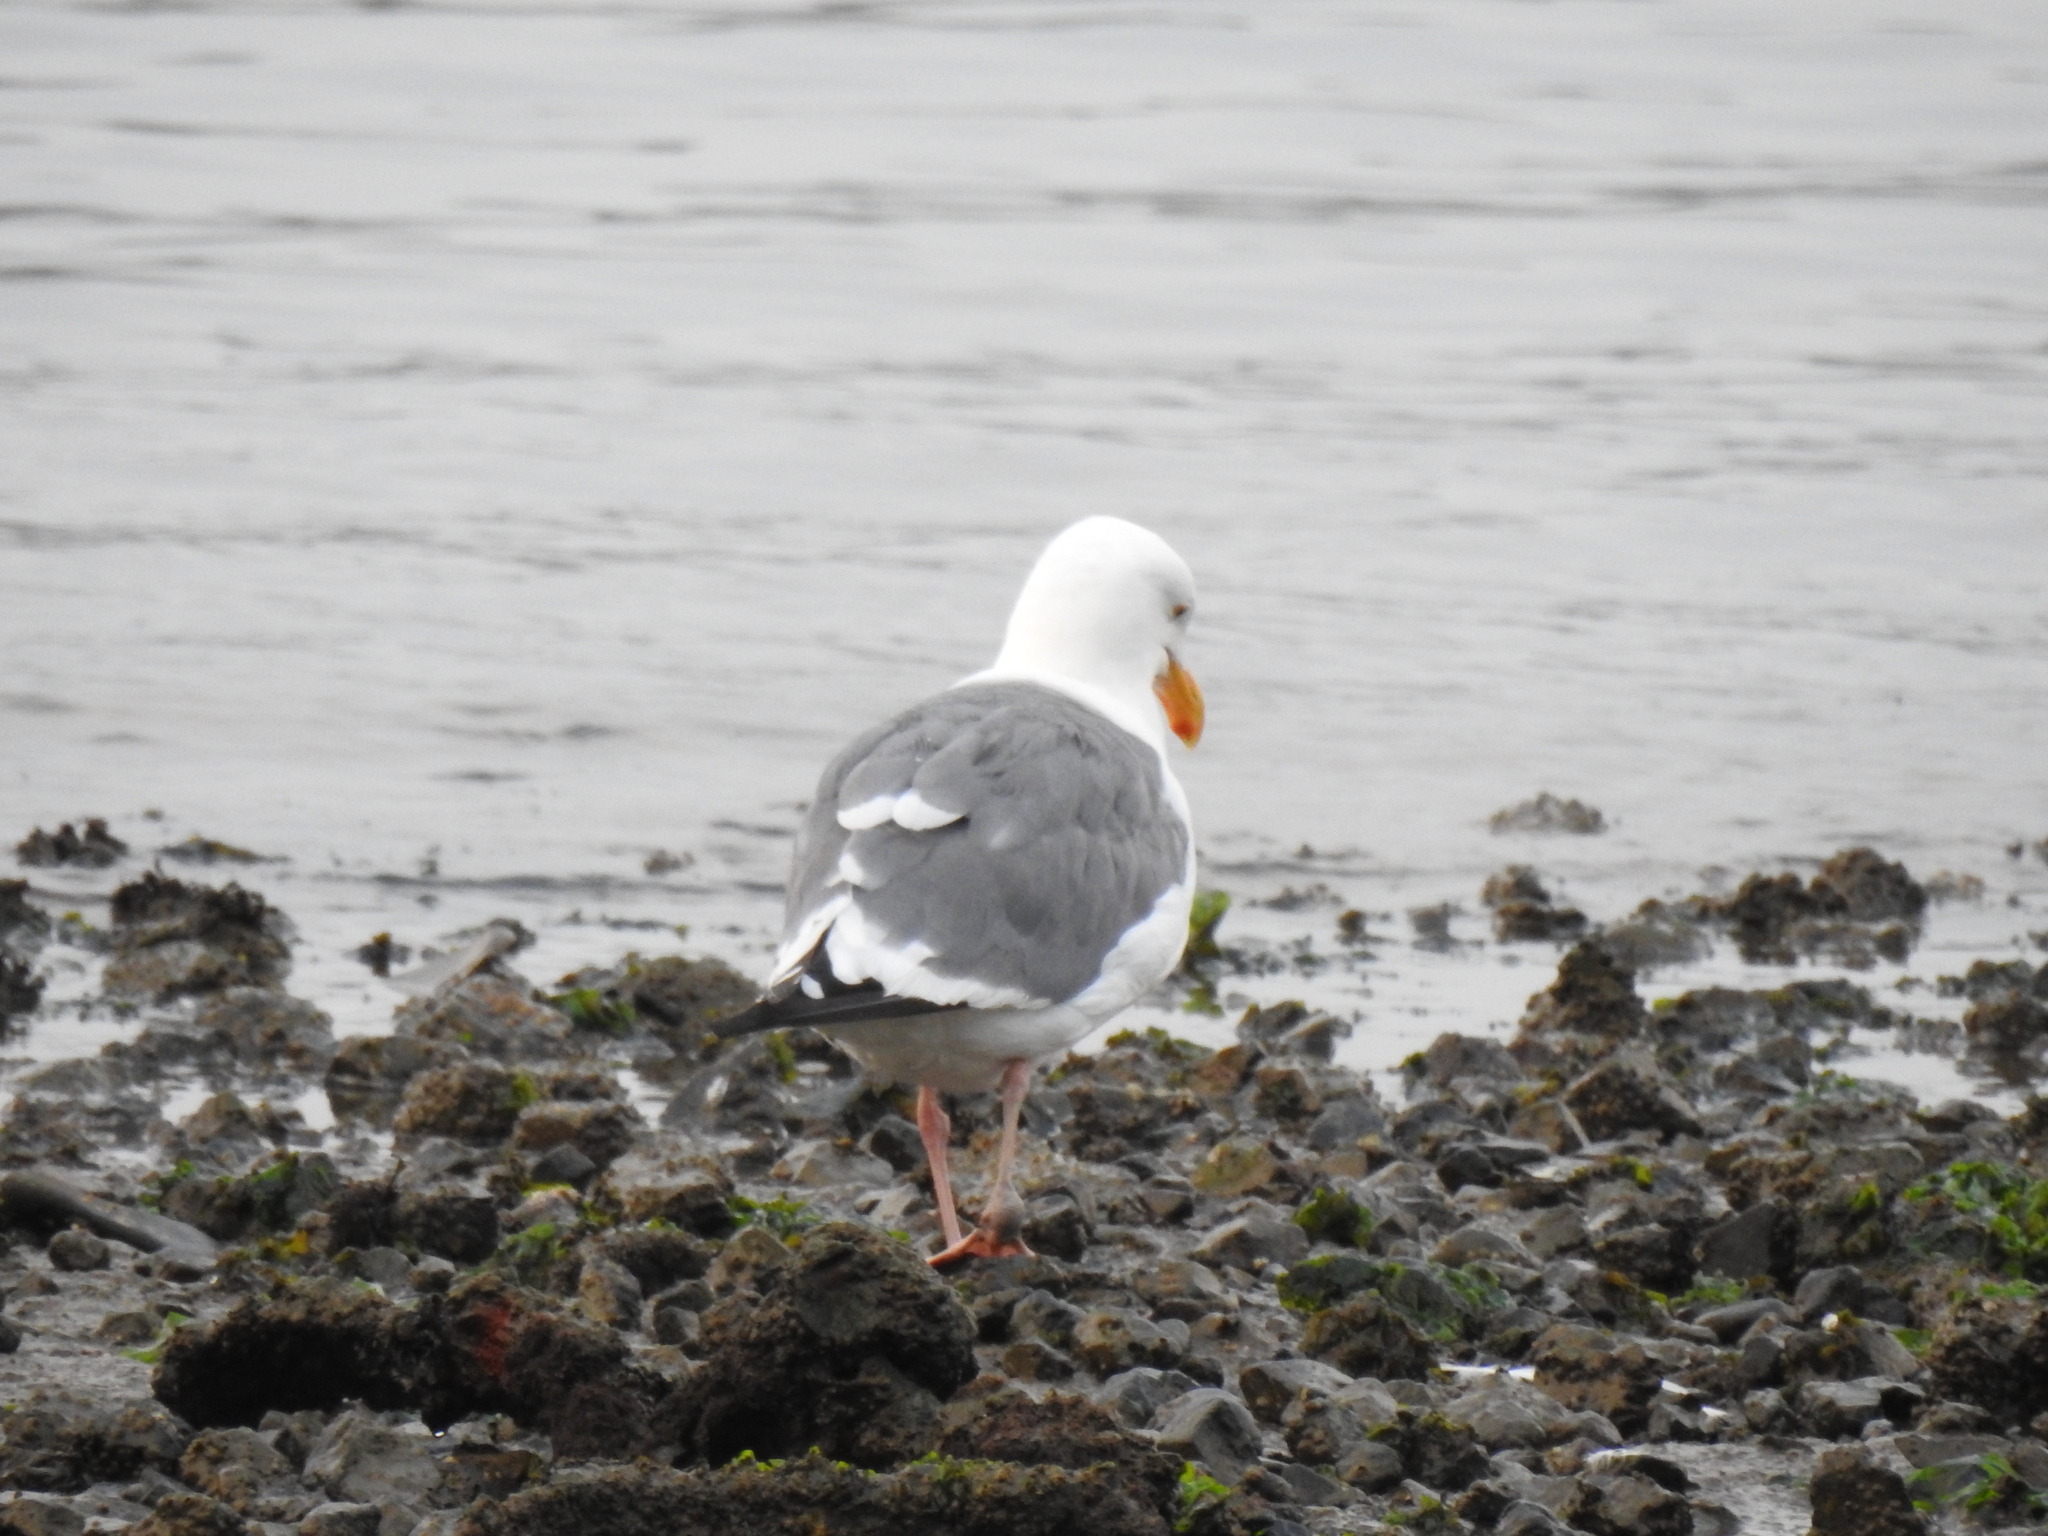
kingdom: Animalia
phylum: Chordata
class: Aves
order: Charadriiformes
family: Laridae
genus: Larus
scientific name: Larus occidentalis
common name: Western gull
